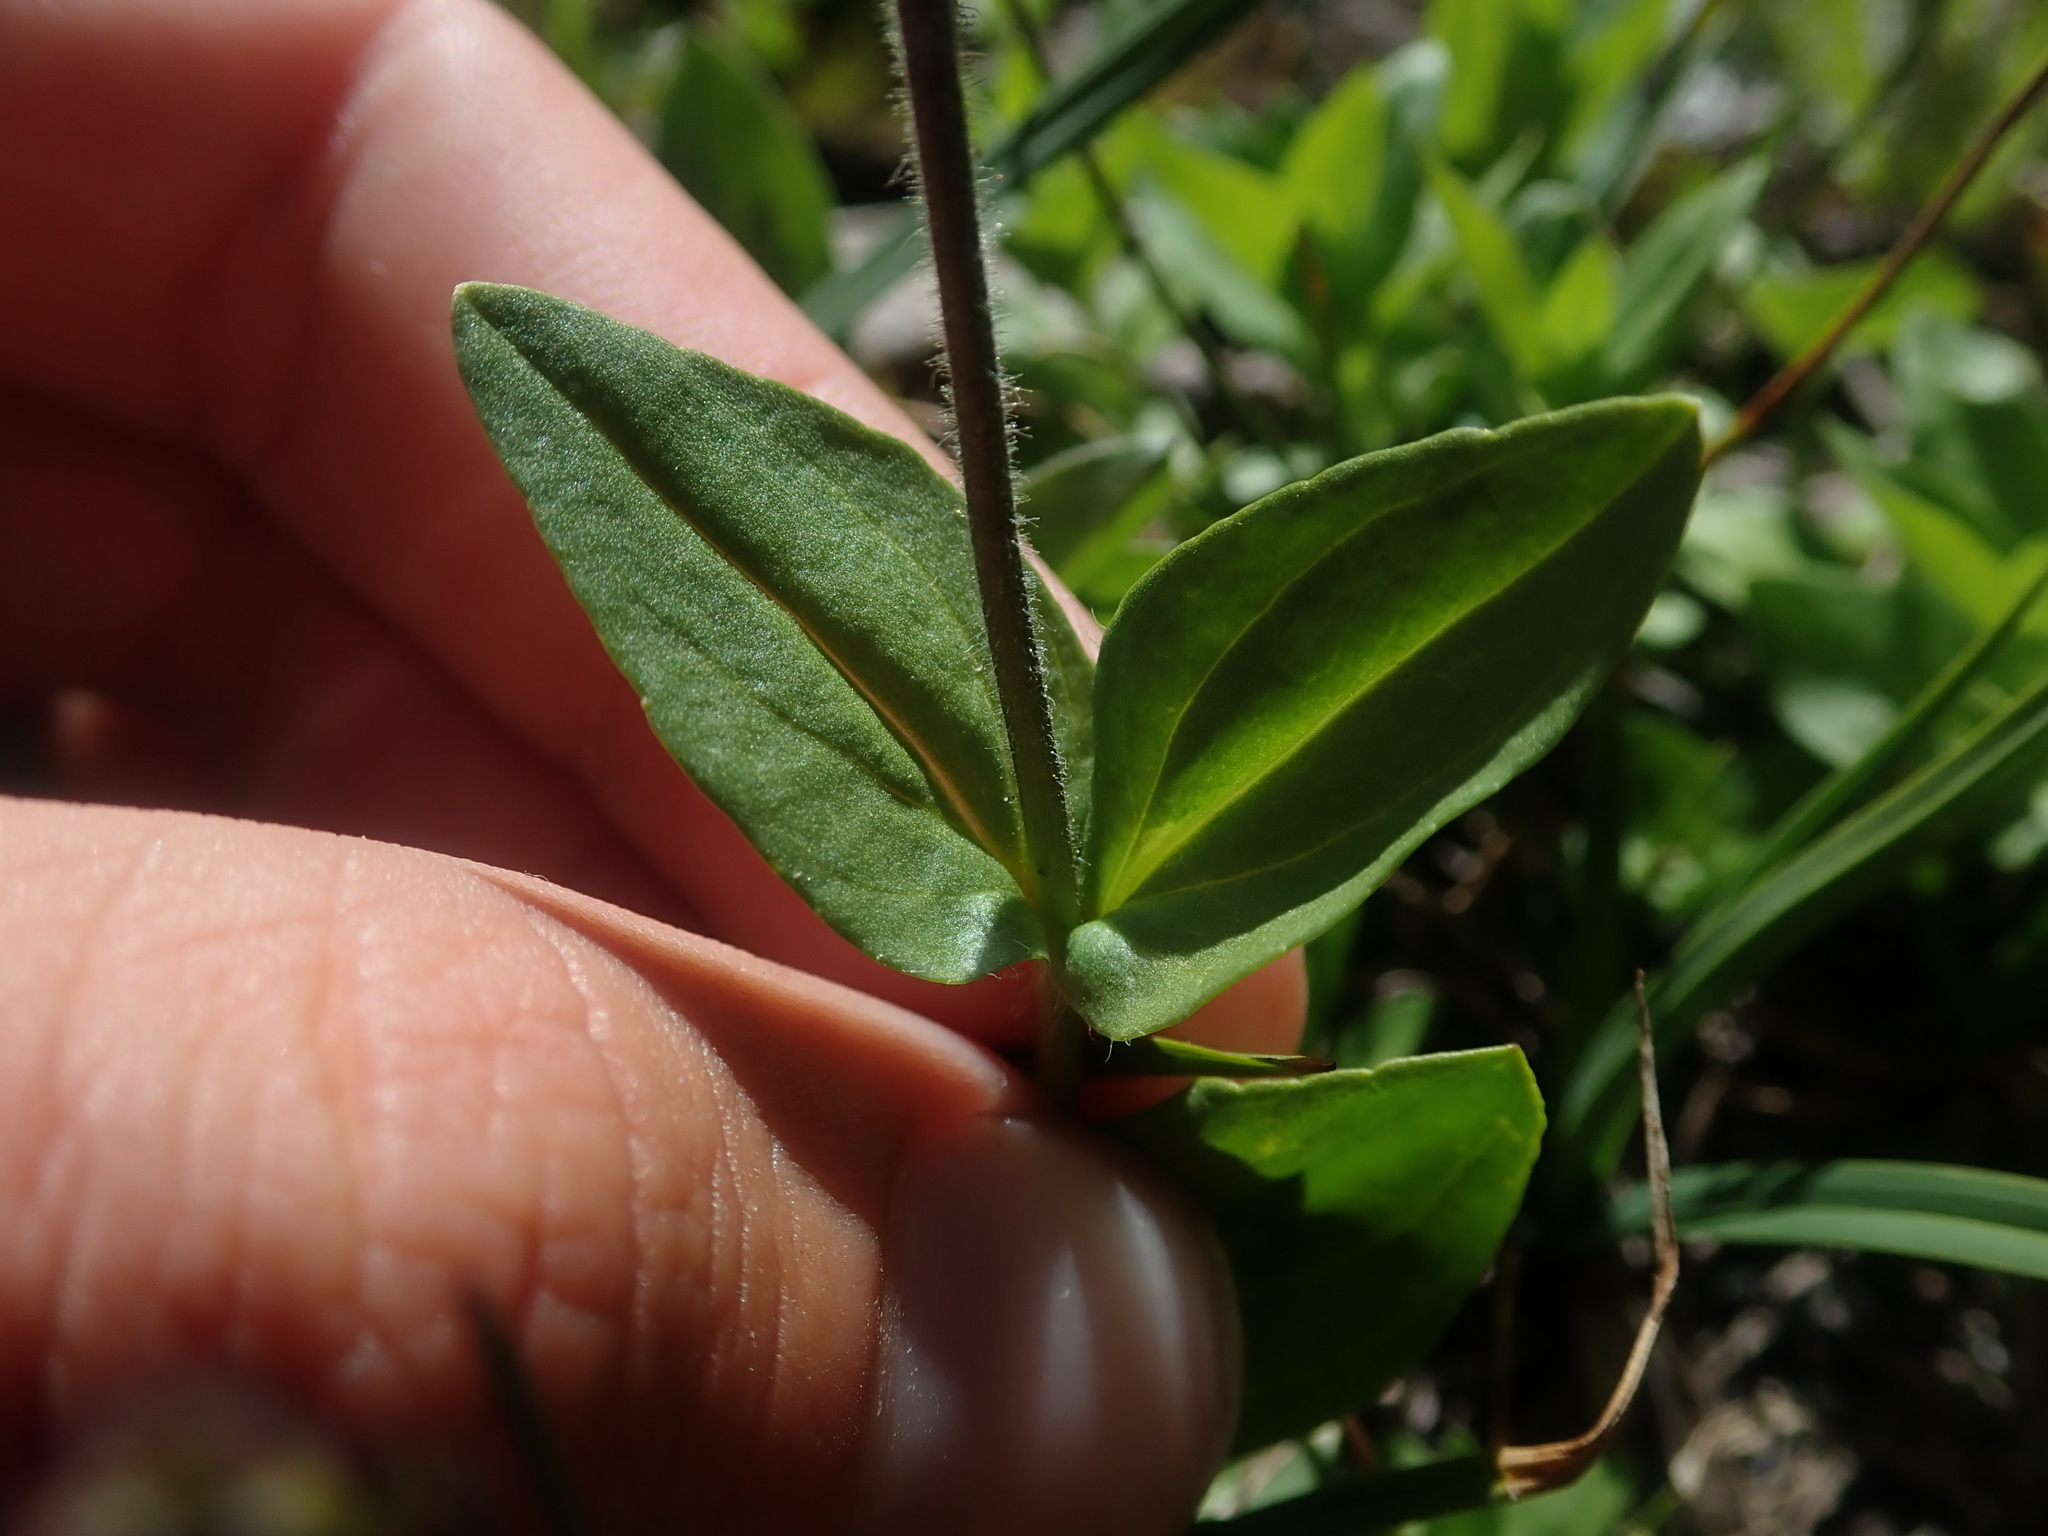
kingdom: Plantae
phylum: Tracheophyta
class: Magnoliopsida
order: Lamiales
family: Plantaginaceae
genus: Veronica
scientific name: Veronica wormskjoldii
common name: American alpine speedwell
